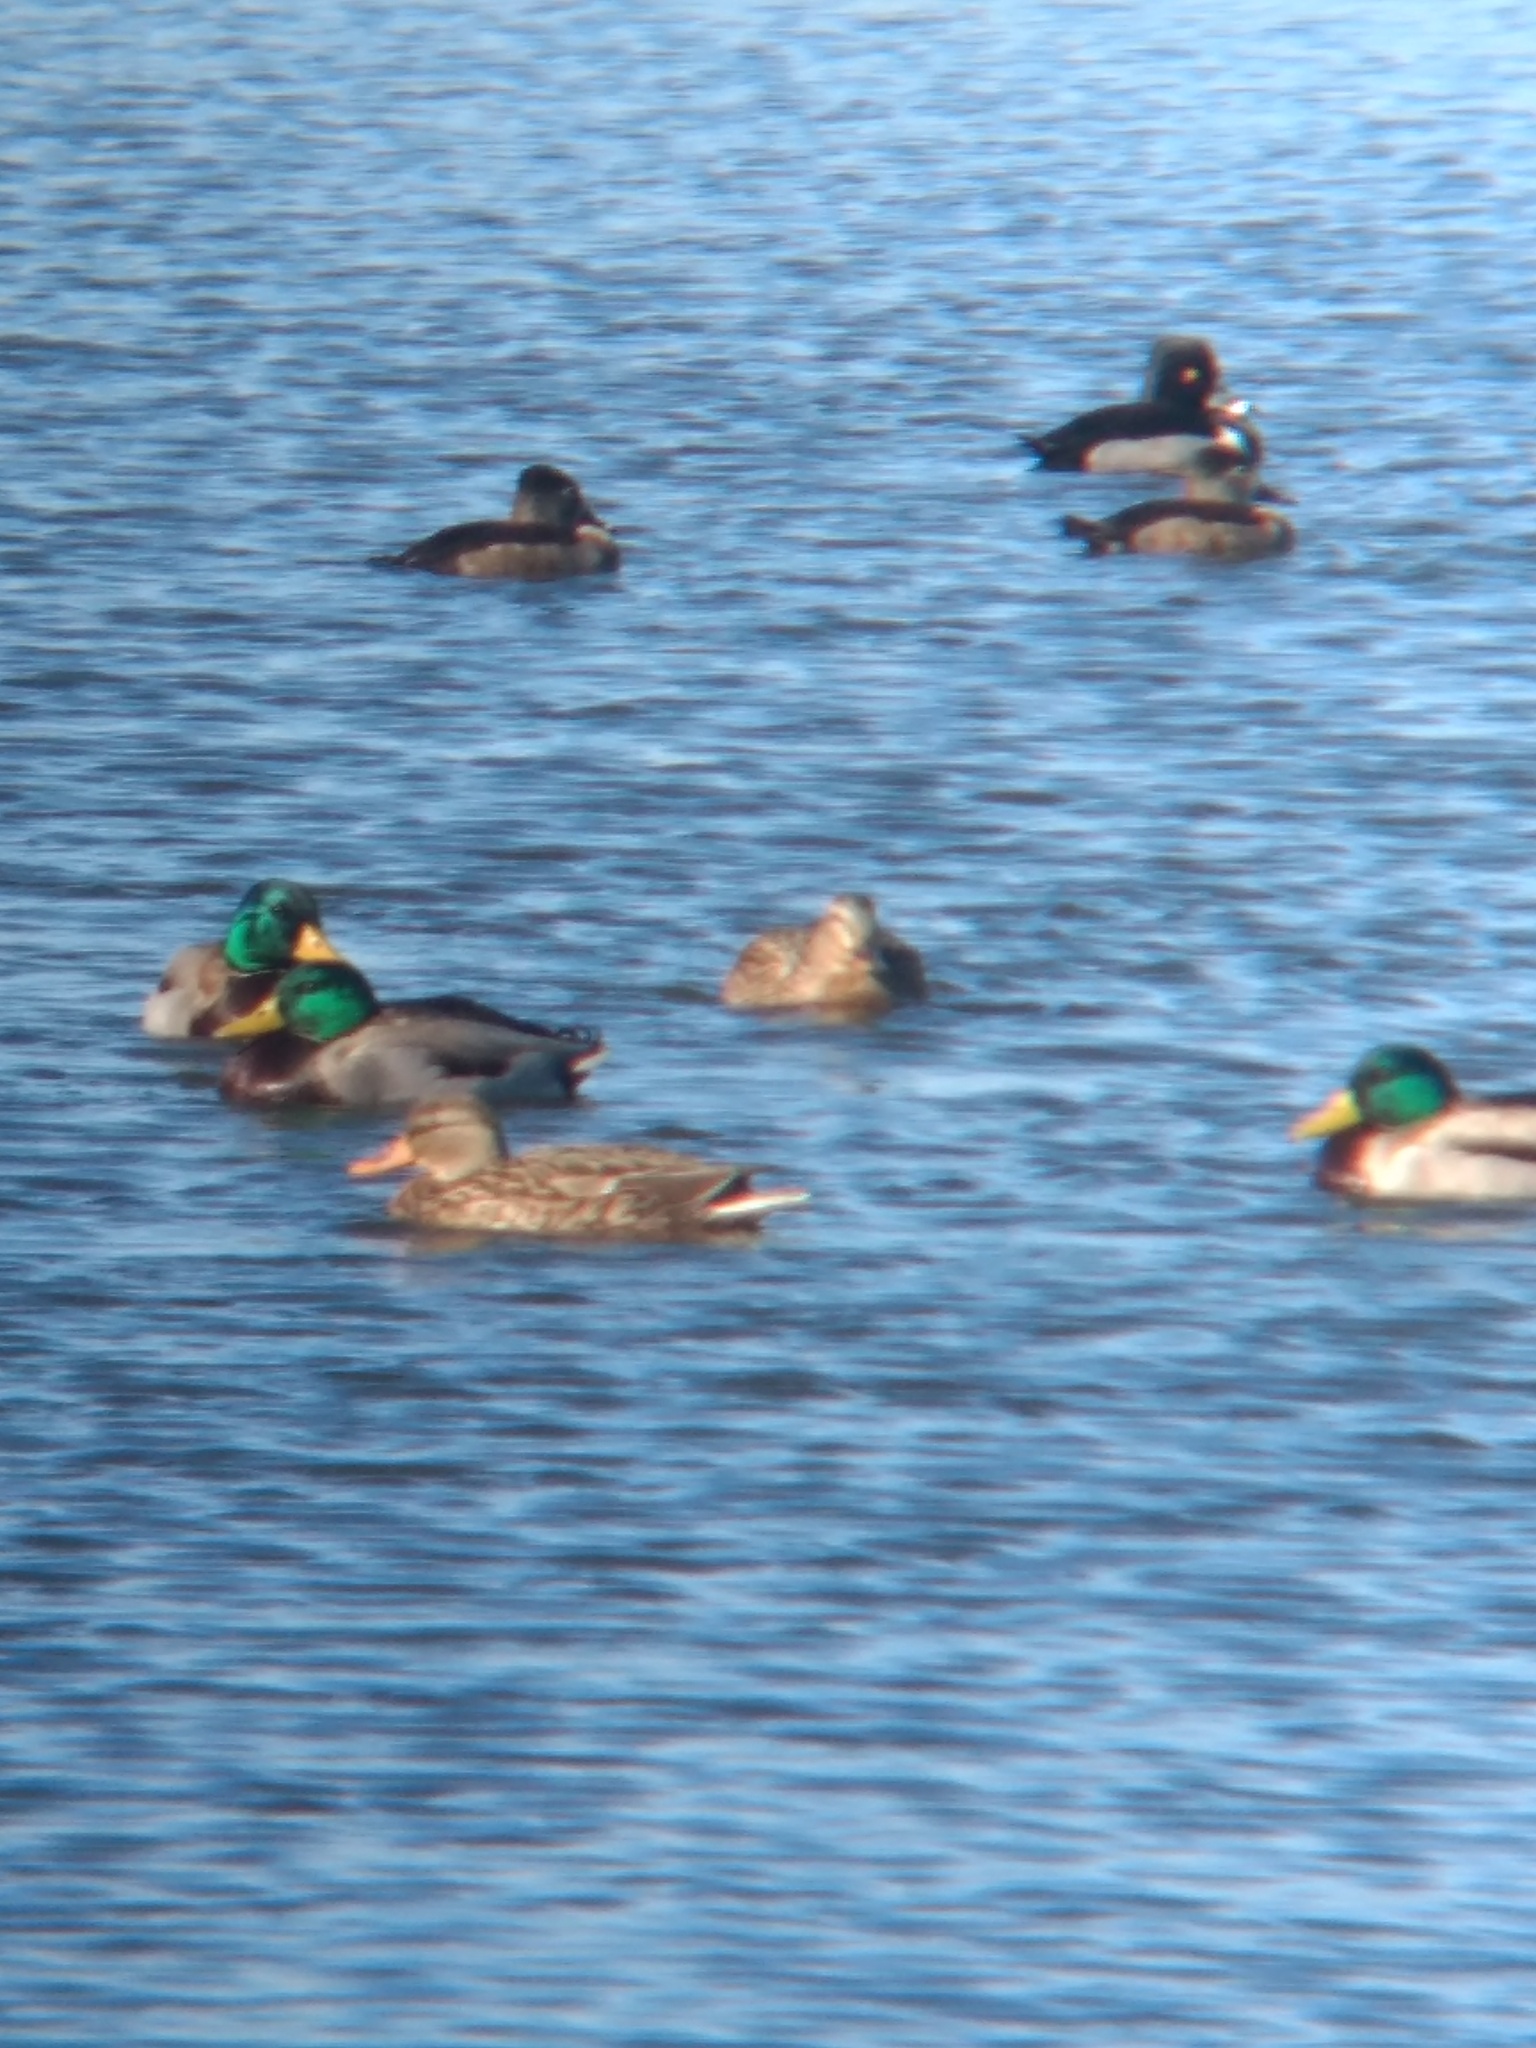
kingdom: Animalia
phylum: Chordata
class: Aves
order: Anseriformes
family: Anatidae
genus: Anas
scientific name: Anas platyrhynchos
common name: Mallard
